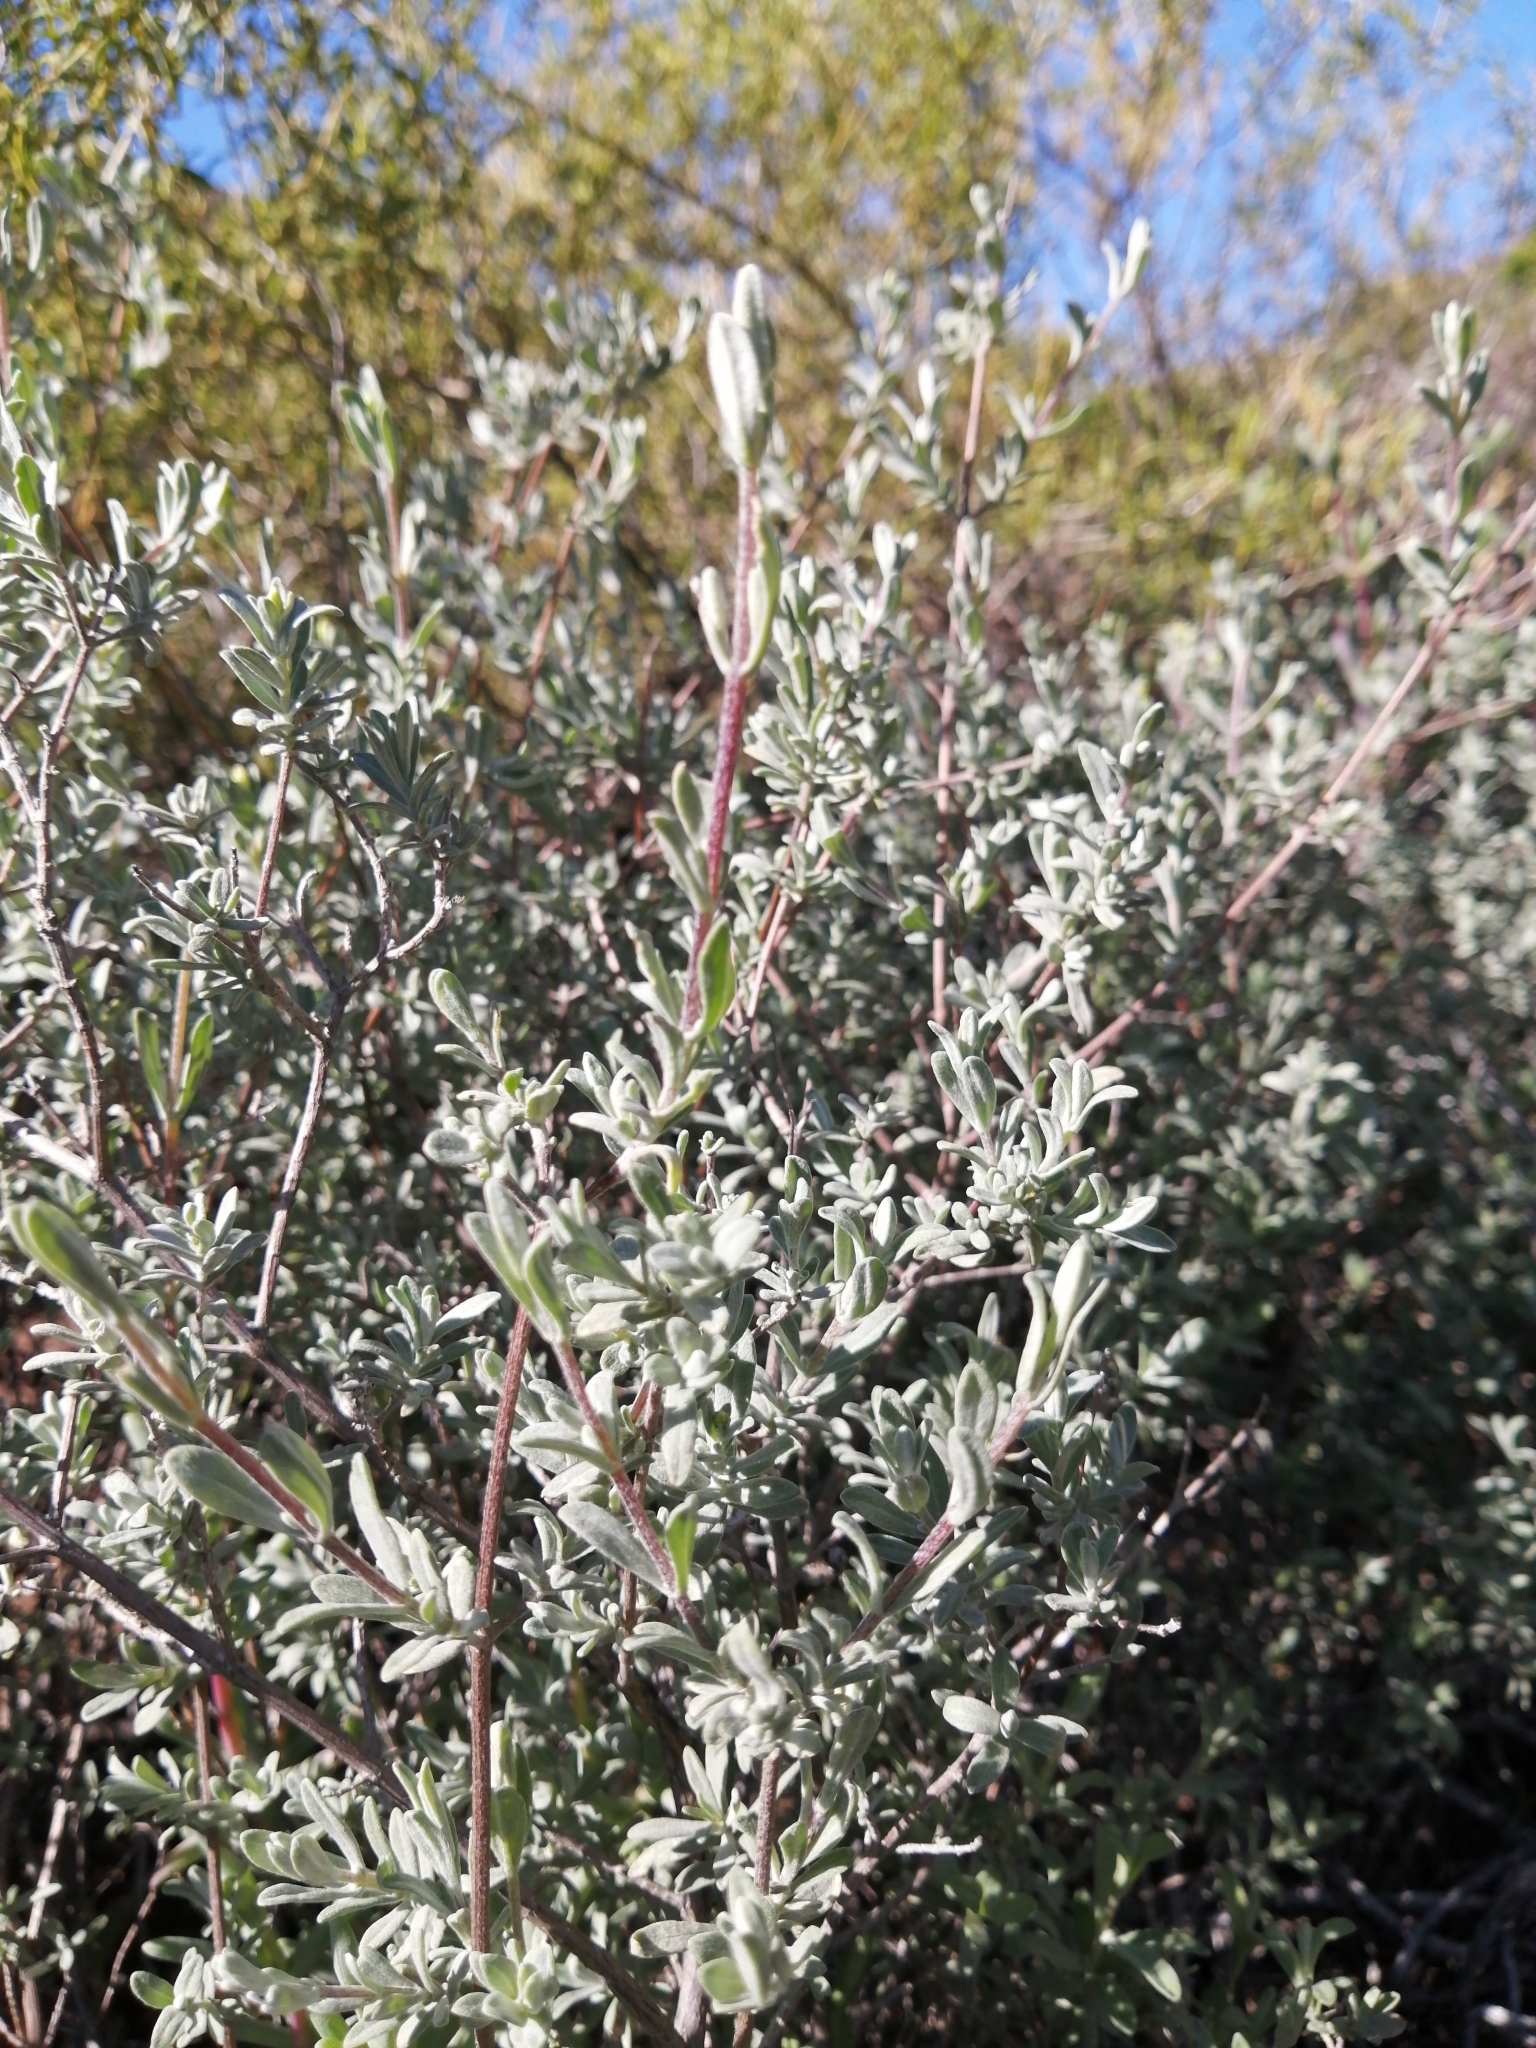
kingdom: Plantae
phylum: Tracheophyta
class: Magnoliopsida
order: Asterales
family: Asteraceae
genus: Pteronia
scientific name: Pteronia incana
